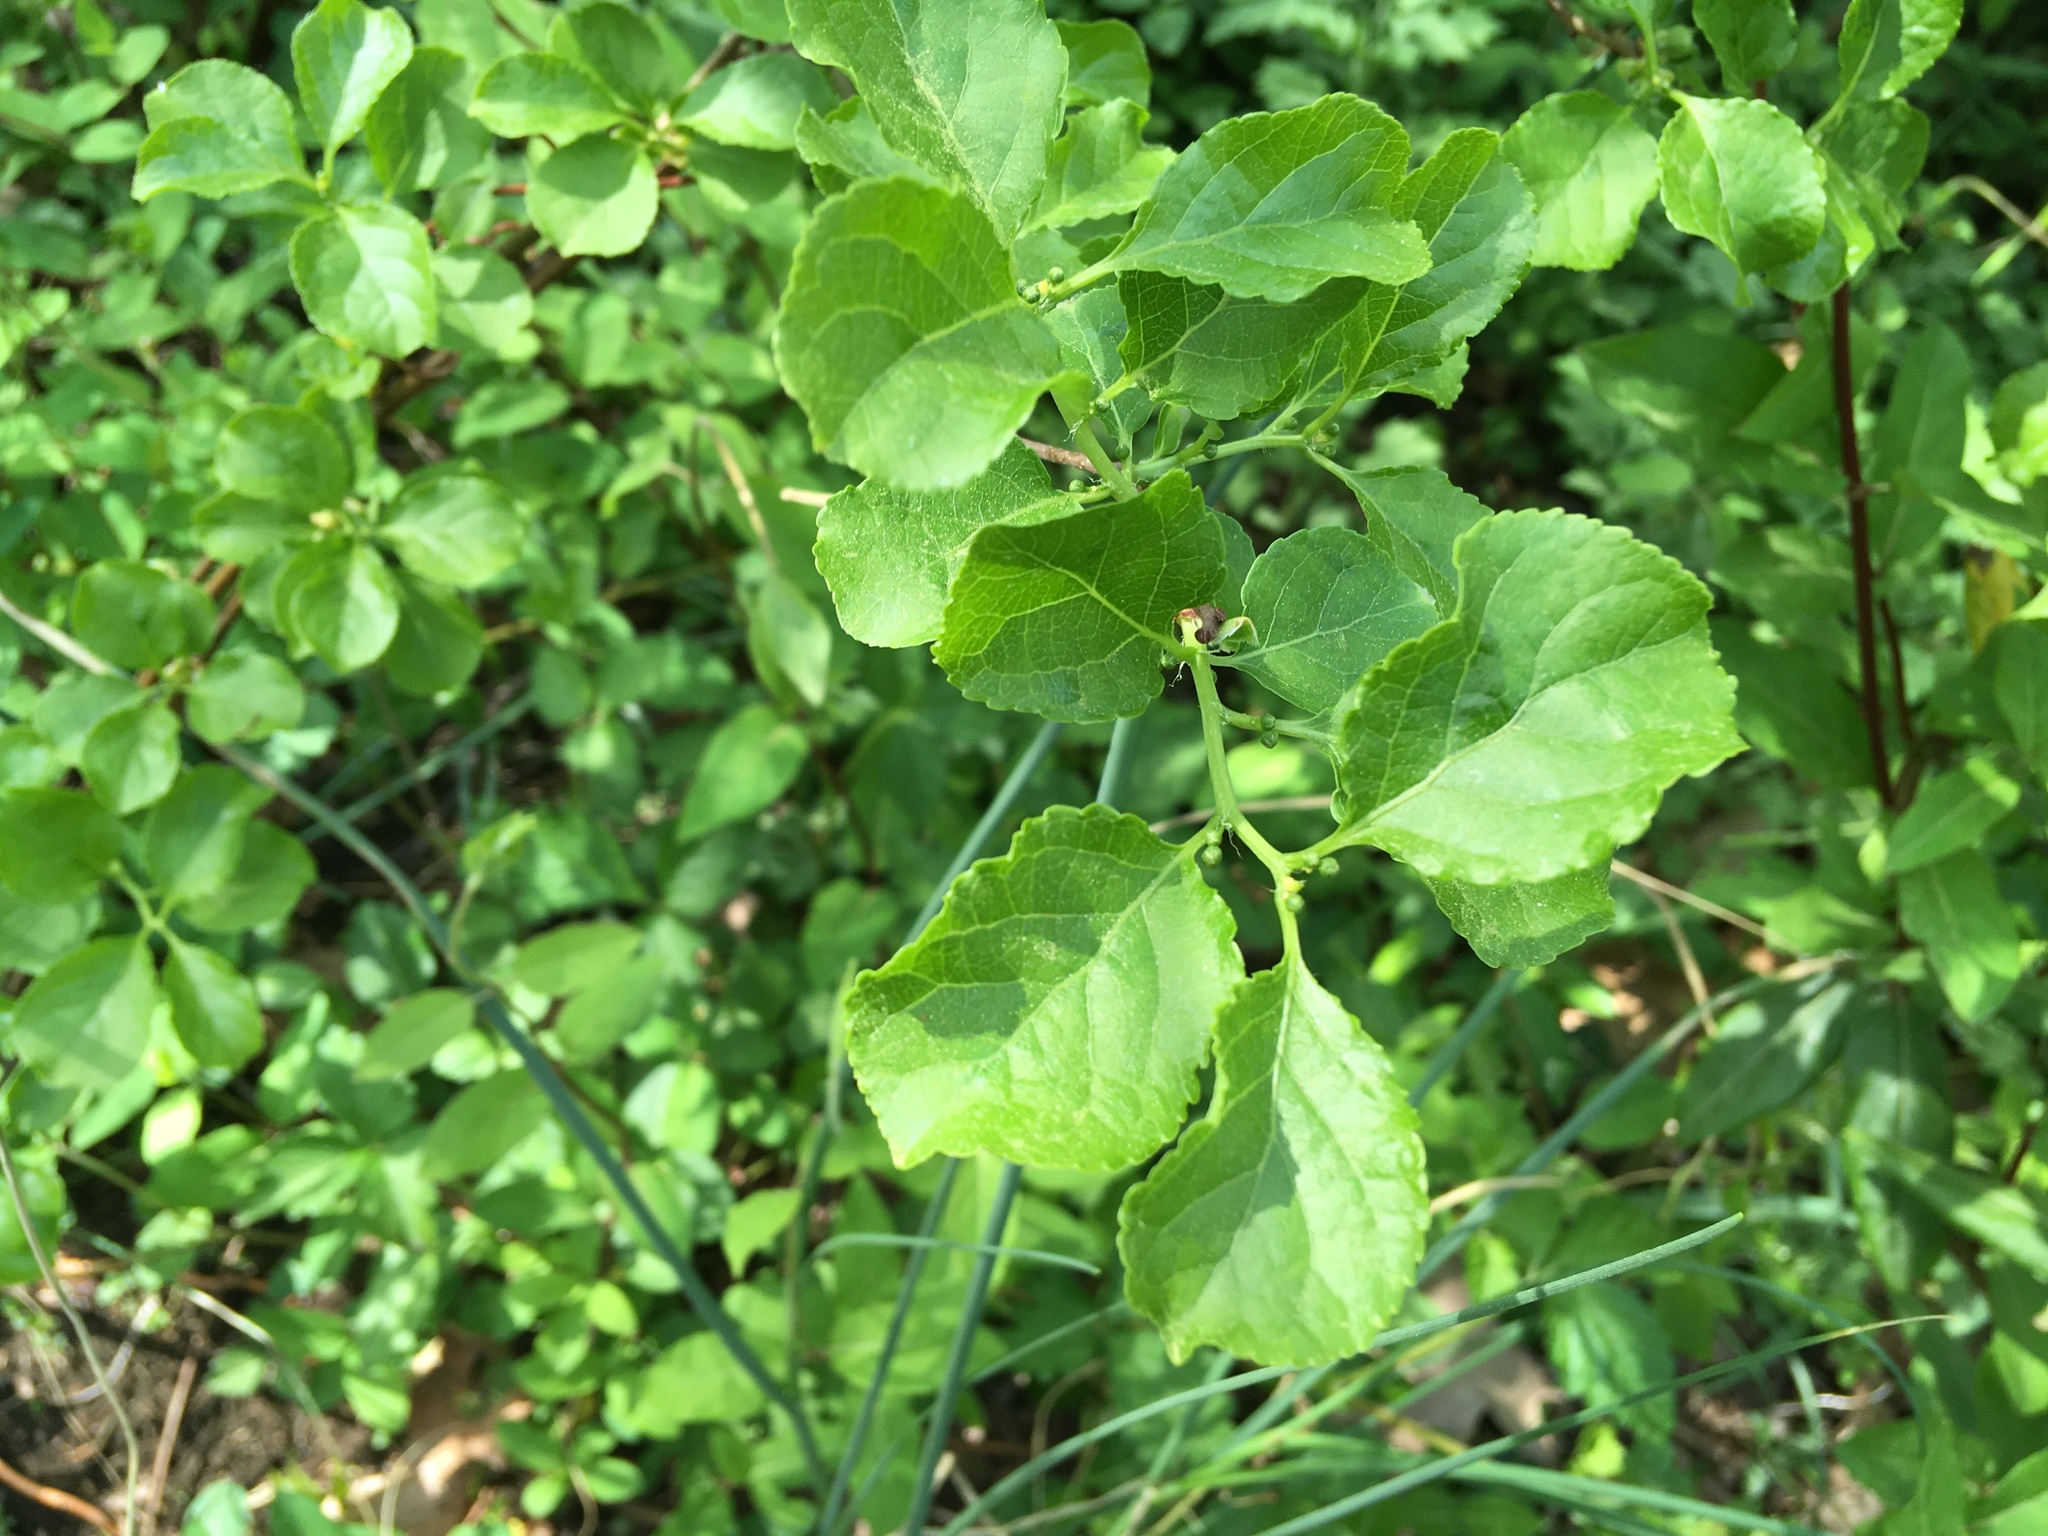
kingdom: Plantae
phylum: Tracheophyta
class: Magnoliopsida
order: Celastrales
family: Celastraceae
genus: Celastrus
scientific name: Celastrus orbiculatus
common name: Oriental bittersweet
